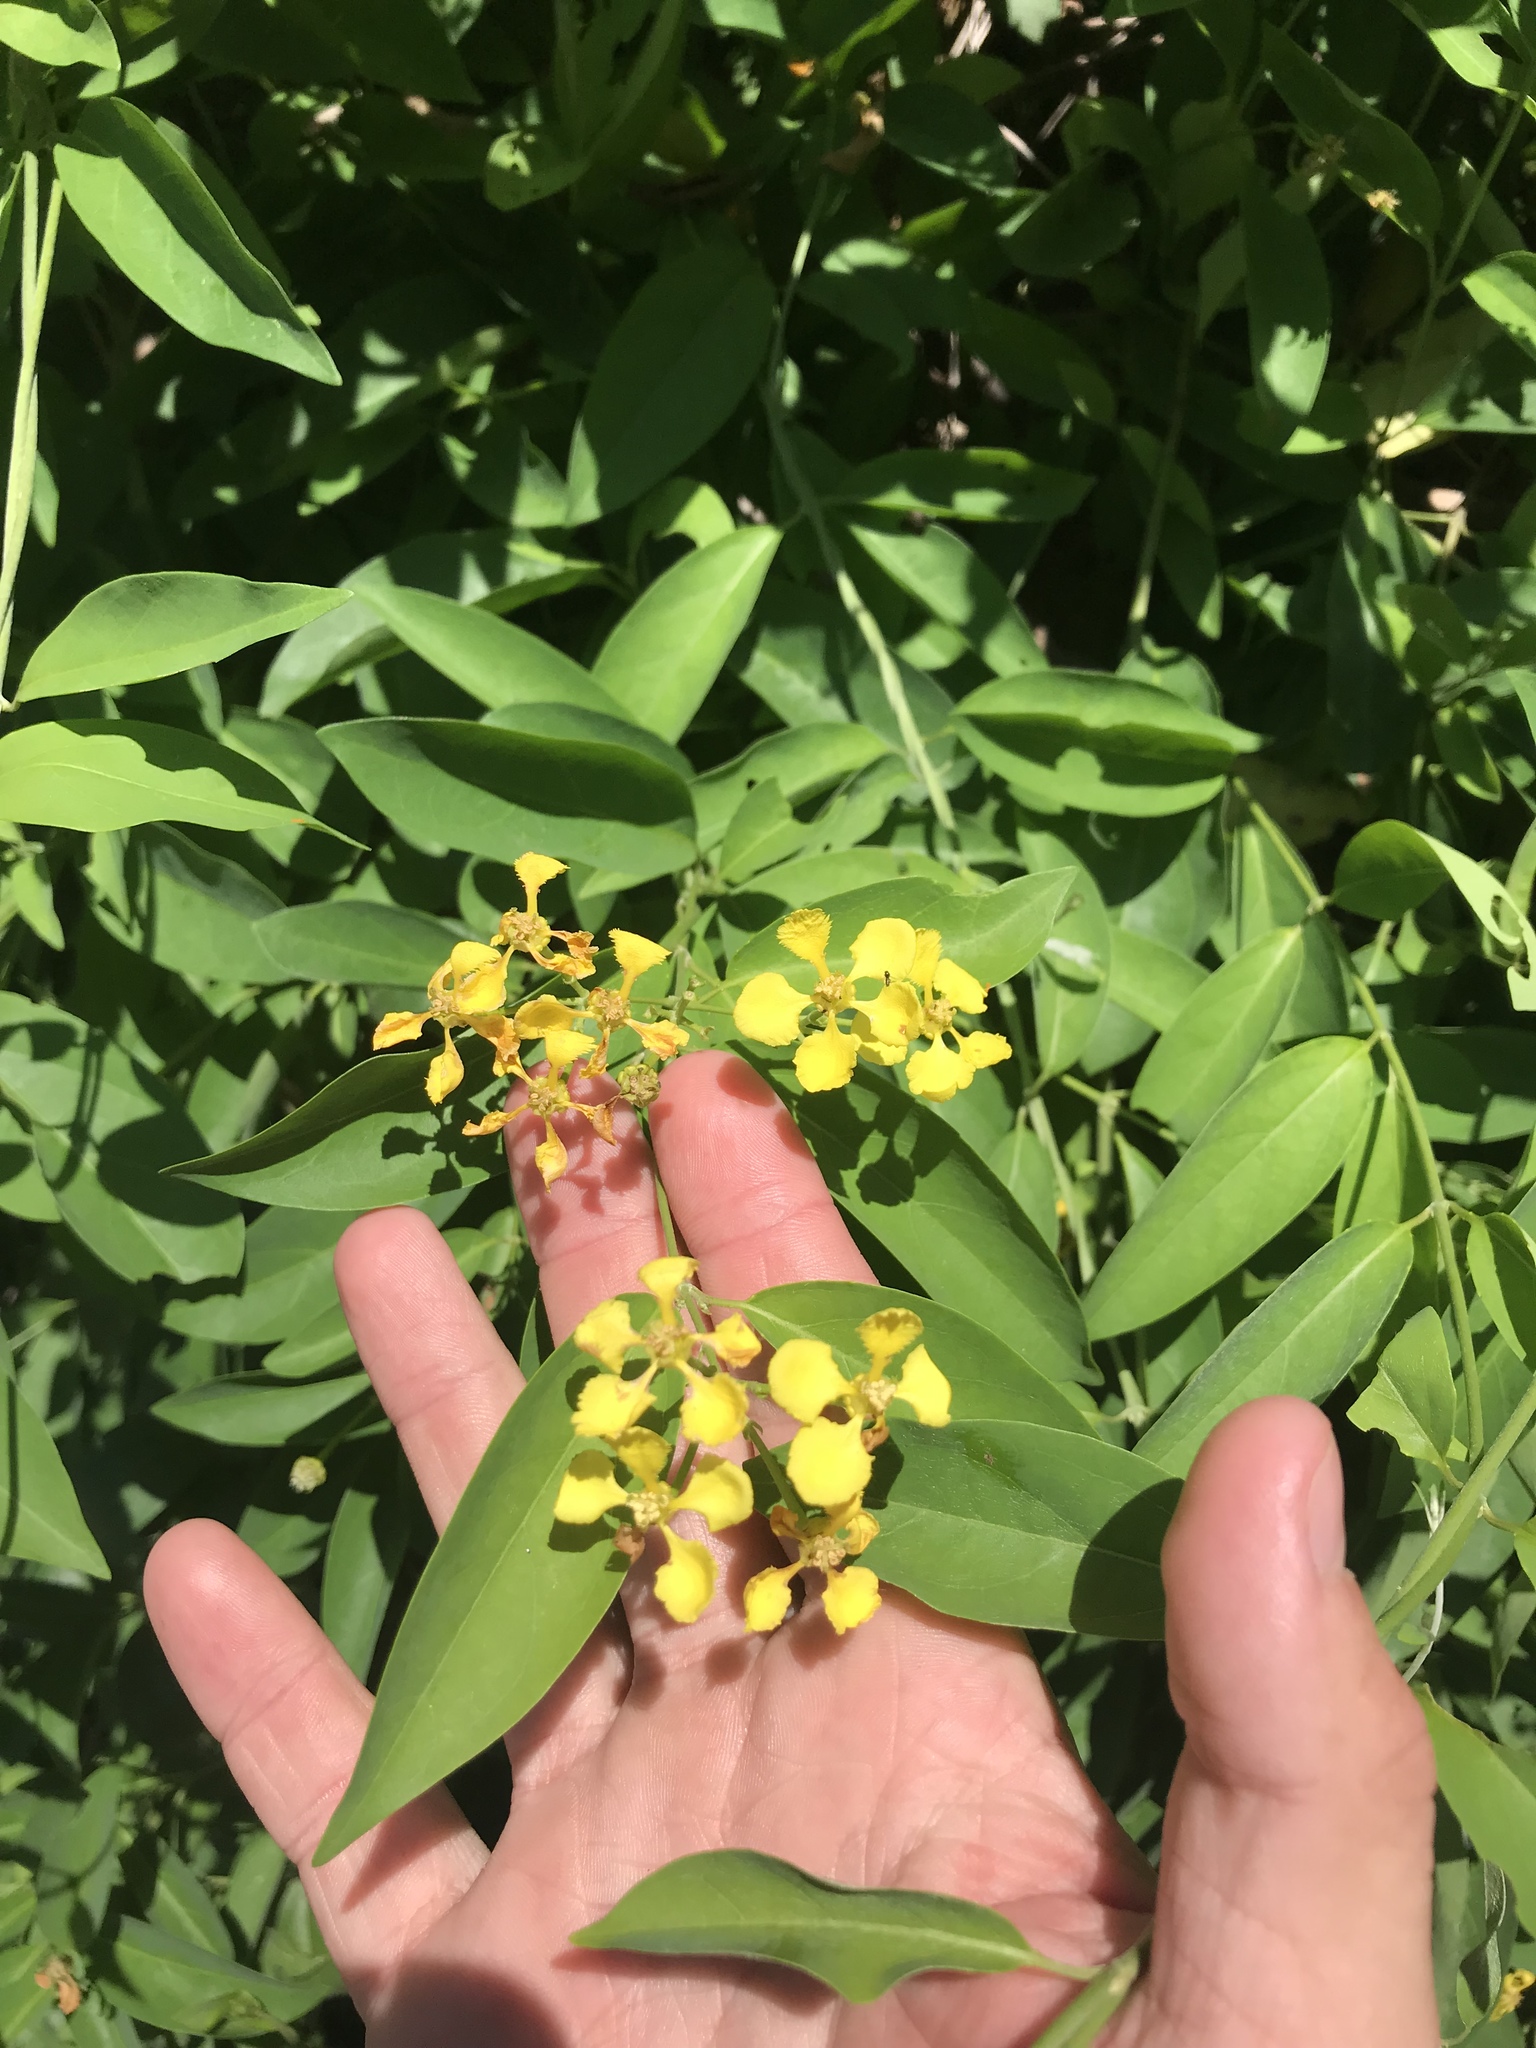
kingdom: Plantae
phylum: Tracheophyta
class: Magnoliopsida
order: Malpighiales
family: Malpighiaceae
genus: Callaeum
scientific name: Callaeum macropterum
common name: Mexican butterfly-vine
